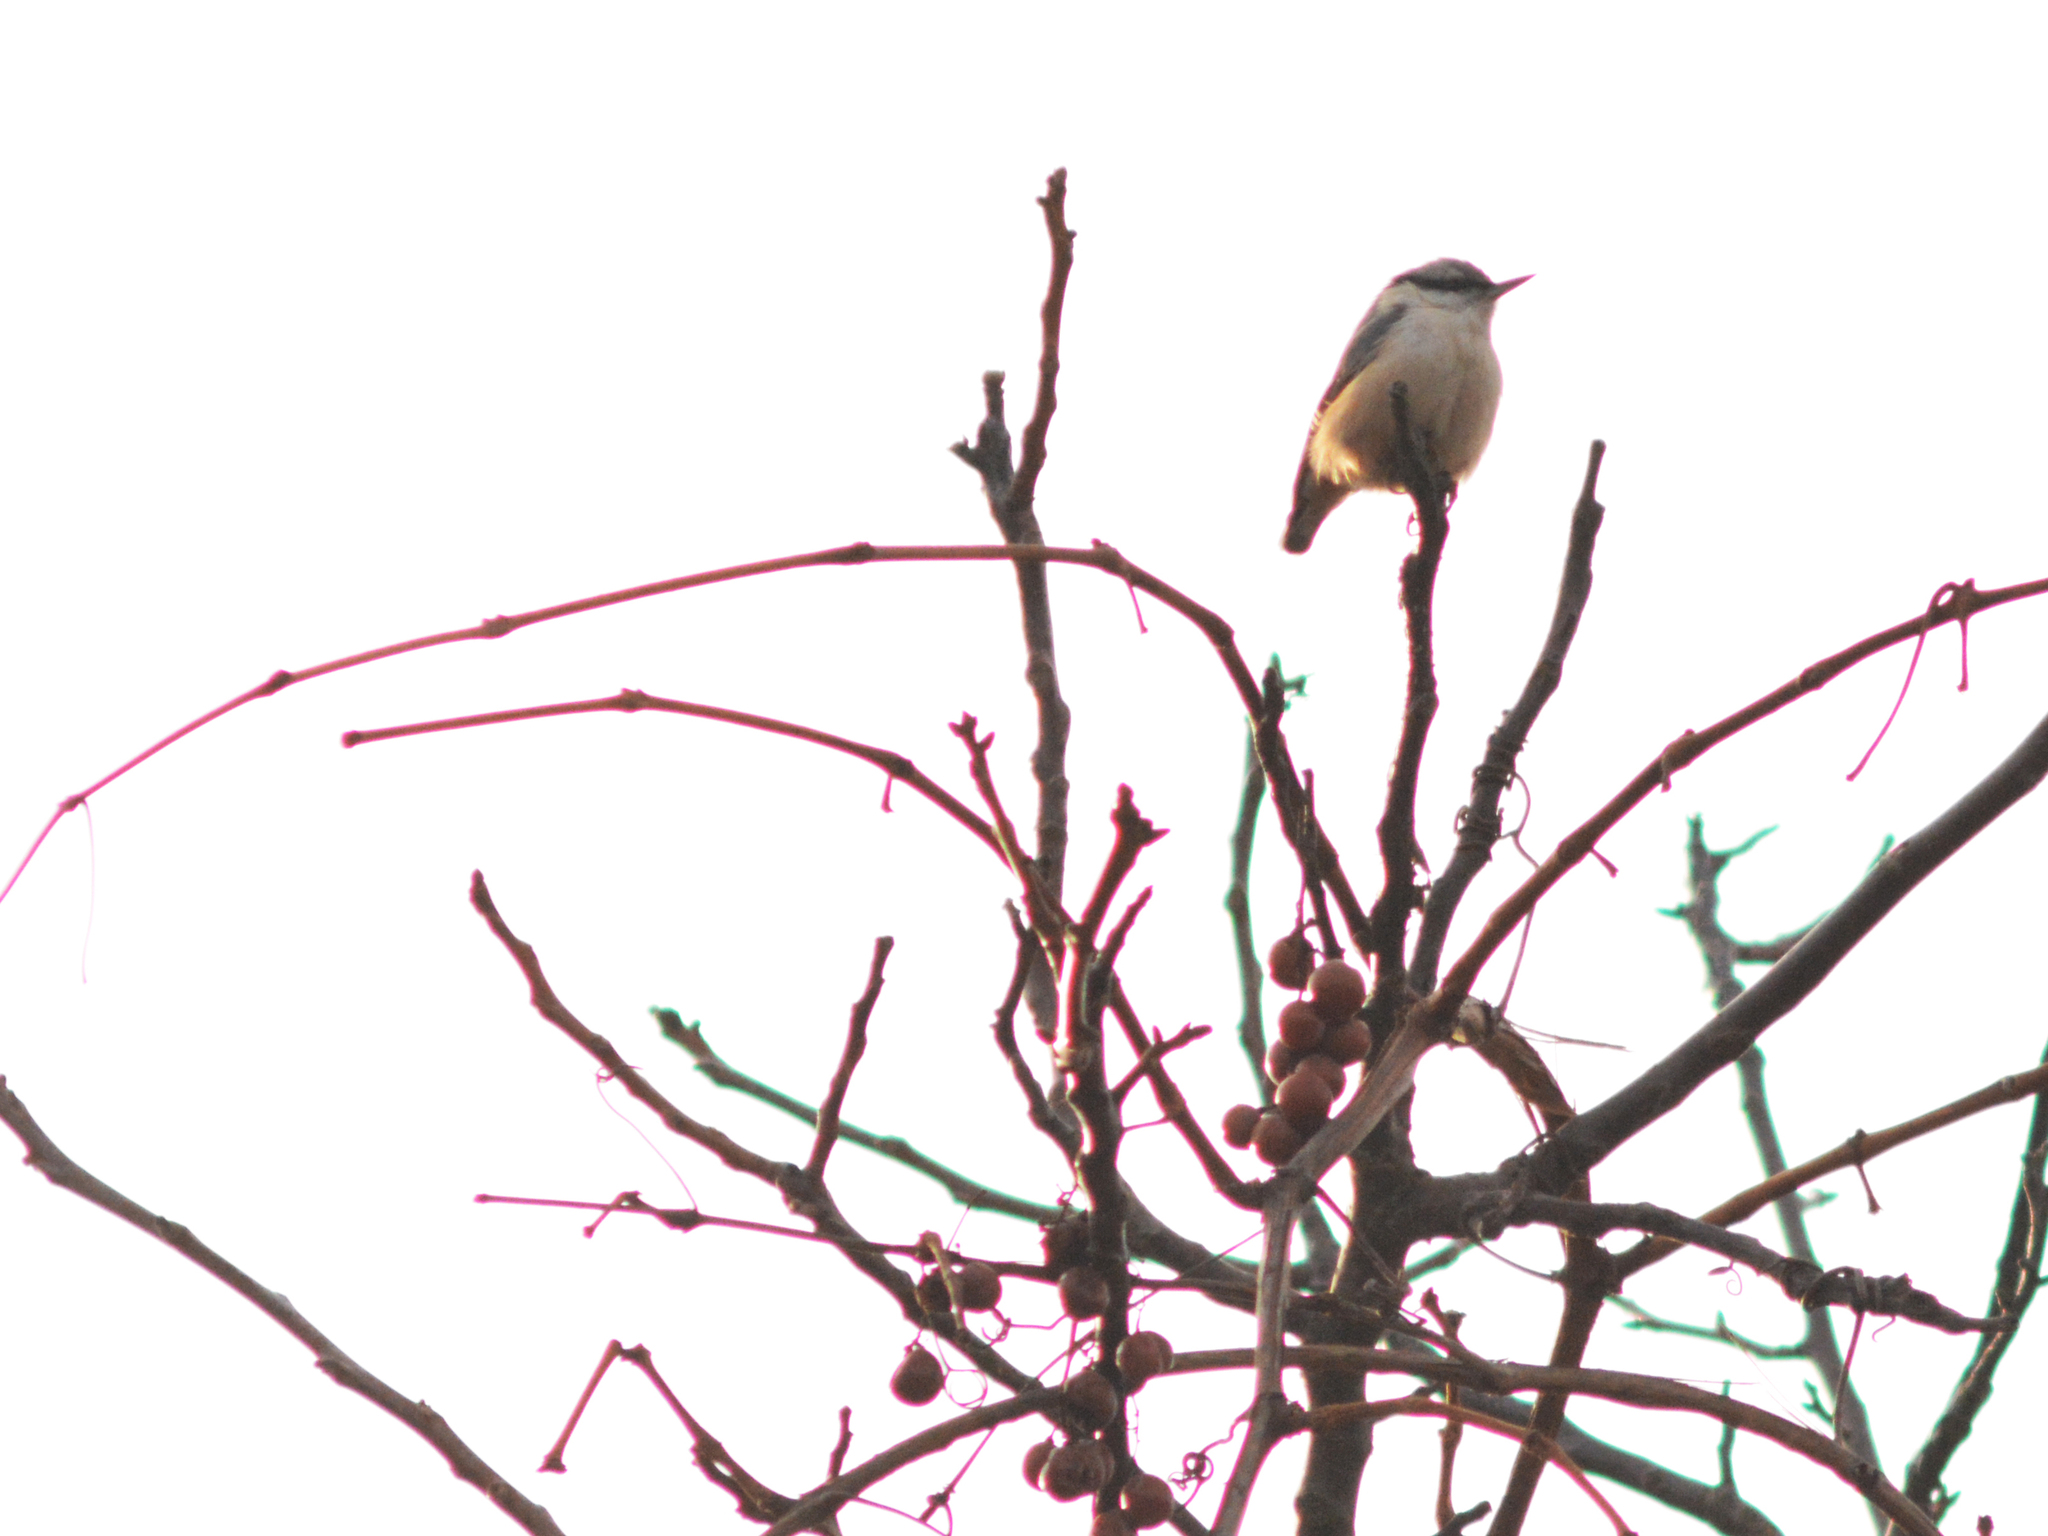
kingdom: Animalia
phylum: Chordata
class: Aves
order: Passeriformes
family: Sittidae
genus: Sitta
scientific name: Sitta europaea
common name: Eurasian nuthatch
